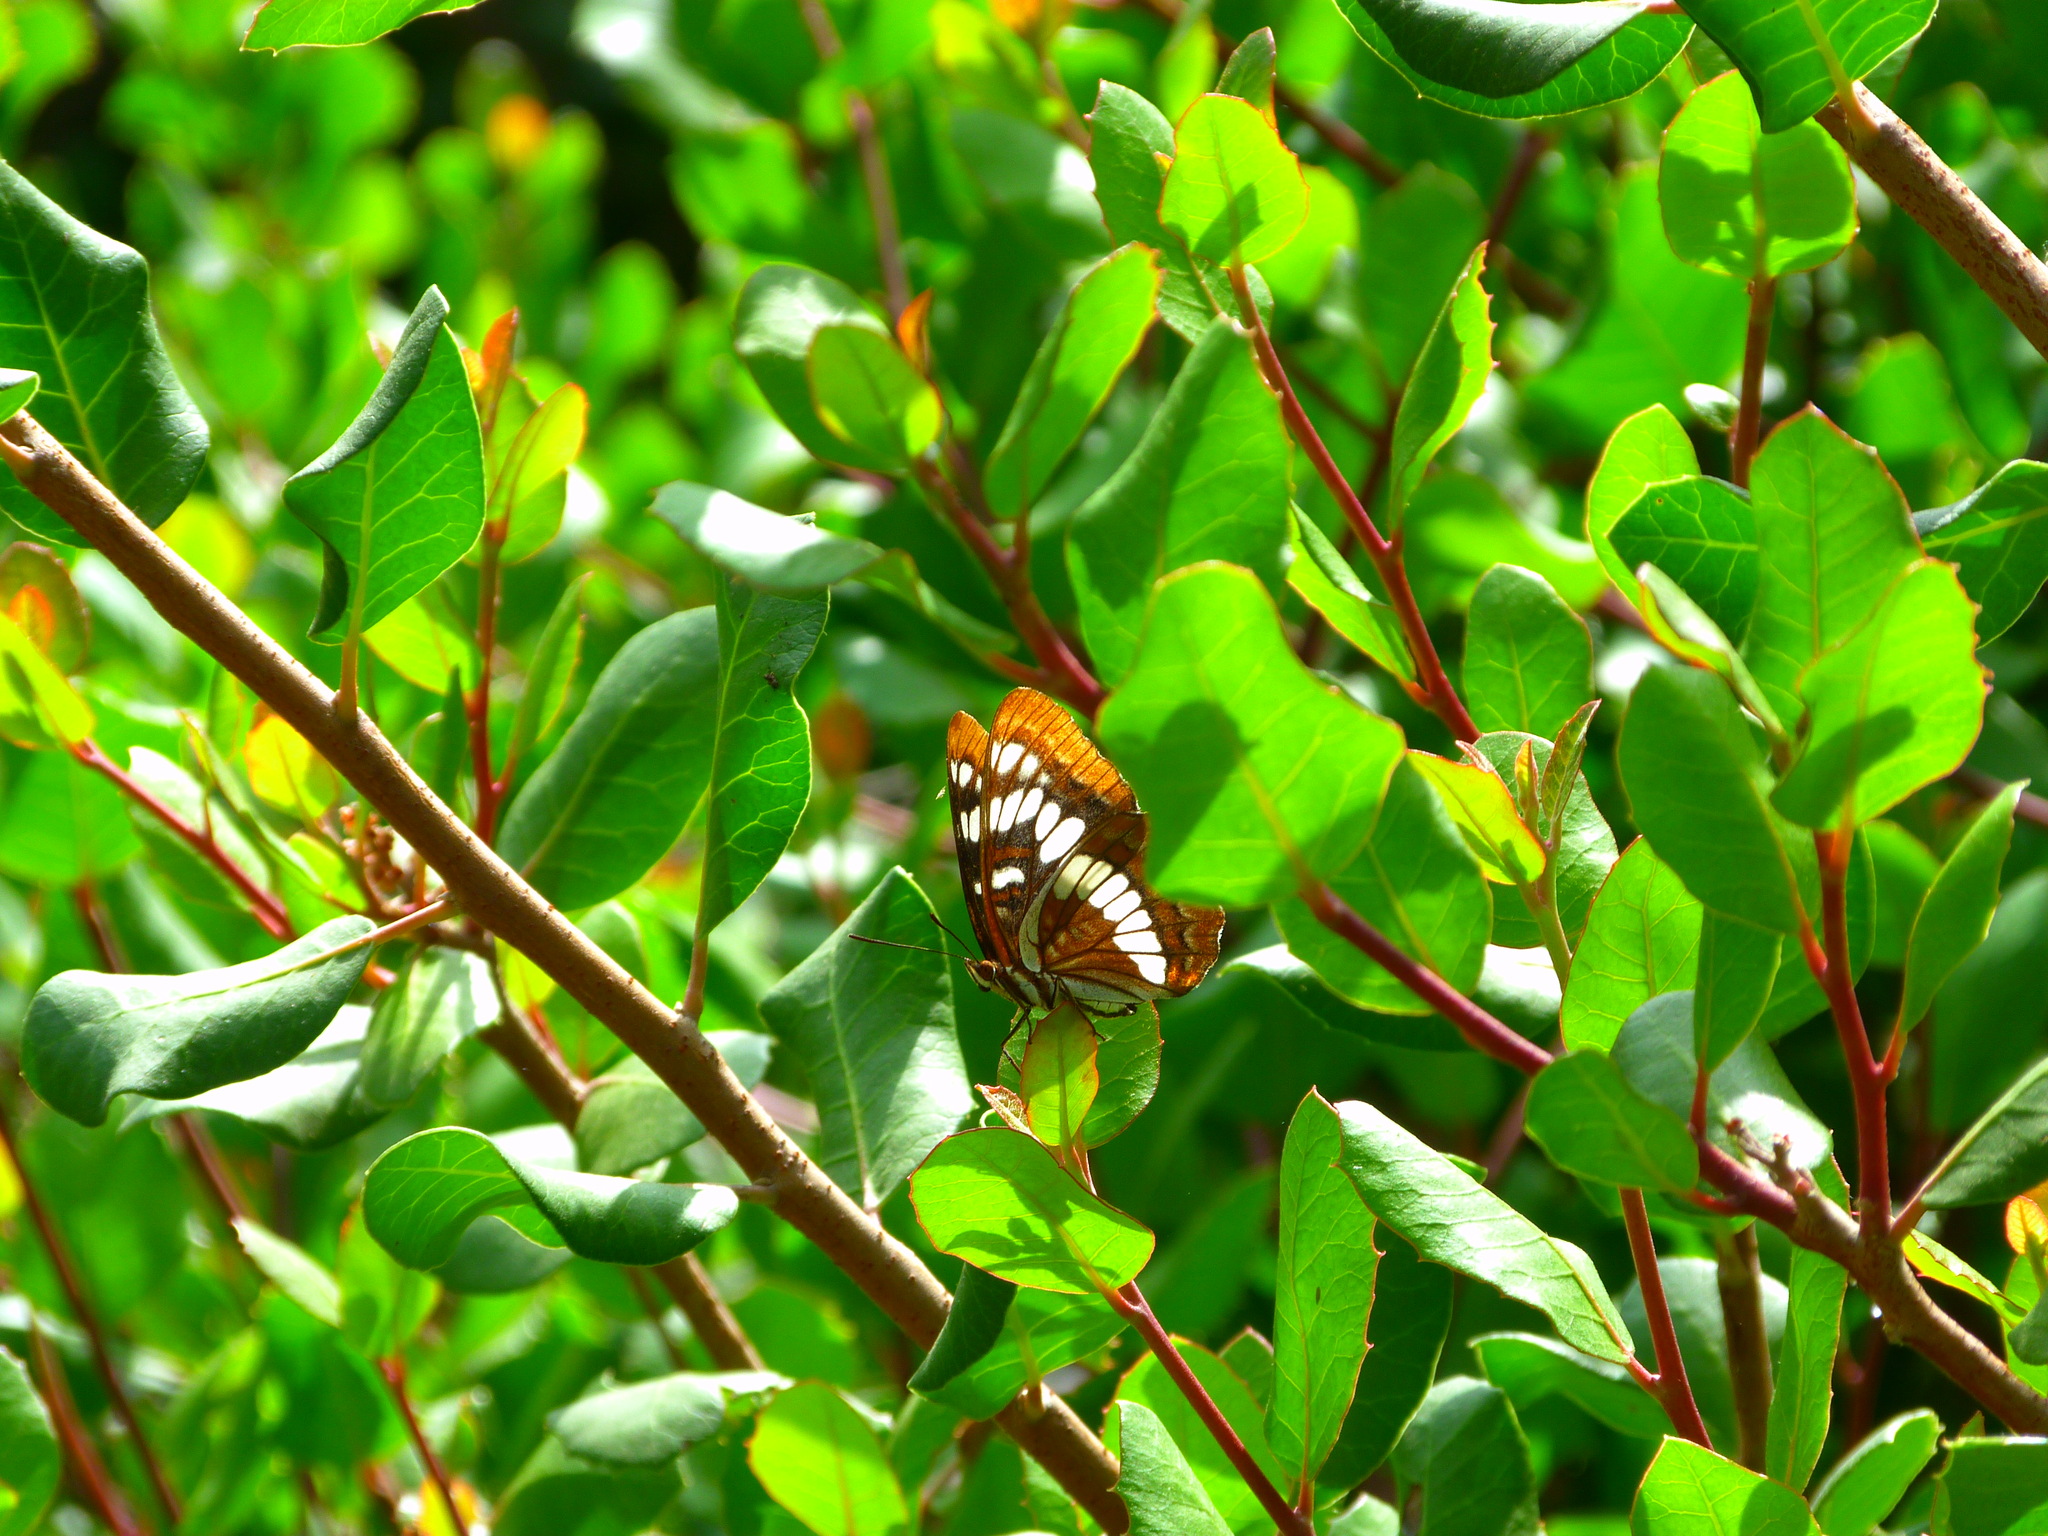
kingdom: Animalia
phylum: Arthropoda
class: Insecta
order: Lepidoptera
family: Nymphalidae
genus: Limenitis
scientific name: Limenitis lorquini
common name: Lorquin's admiral
